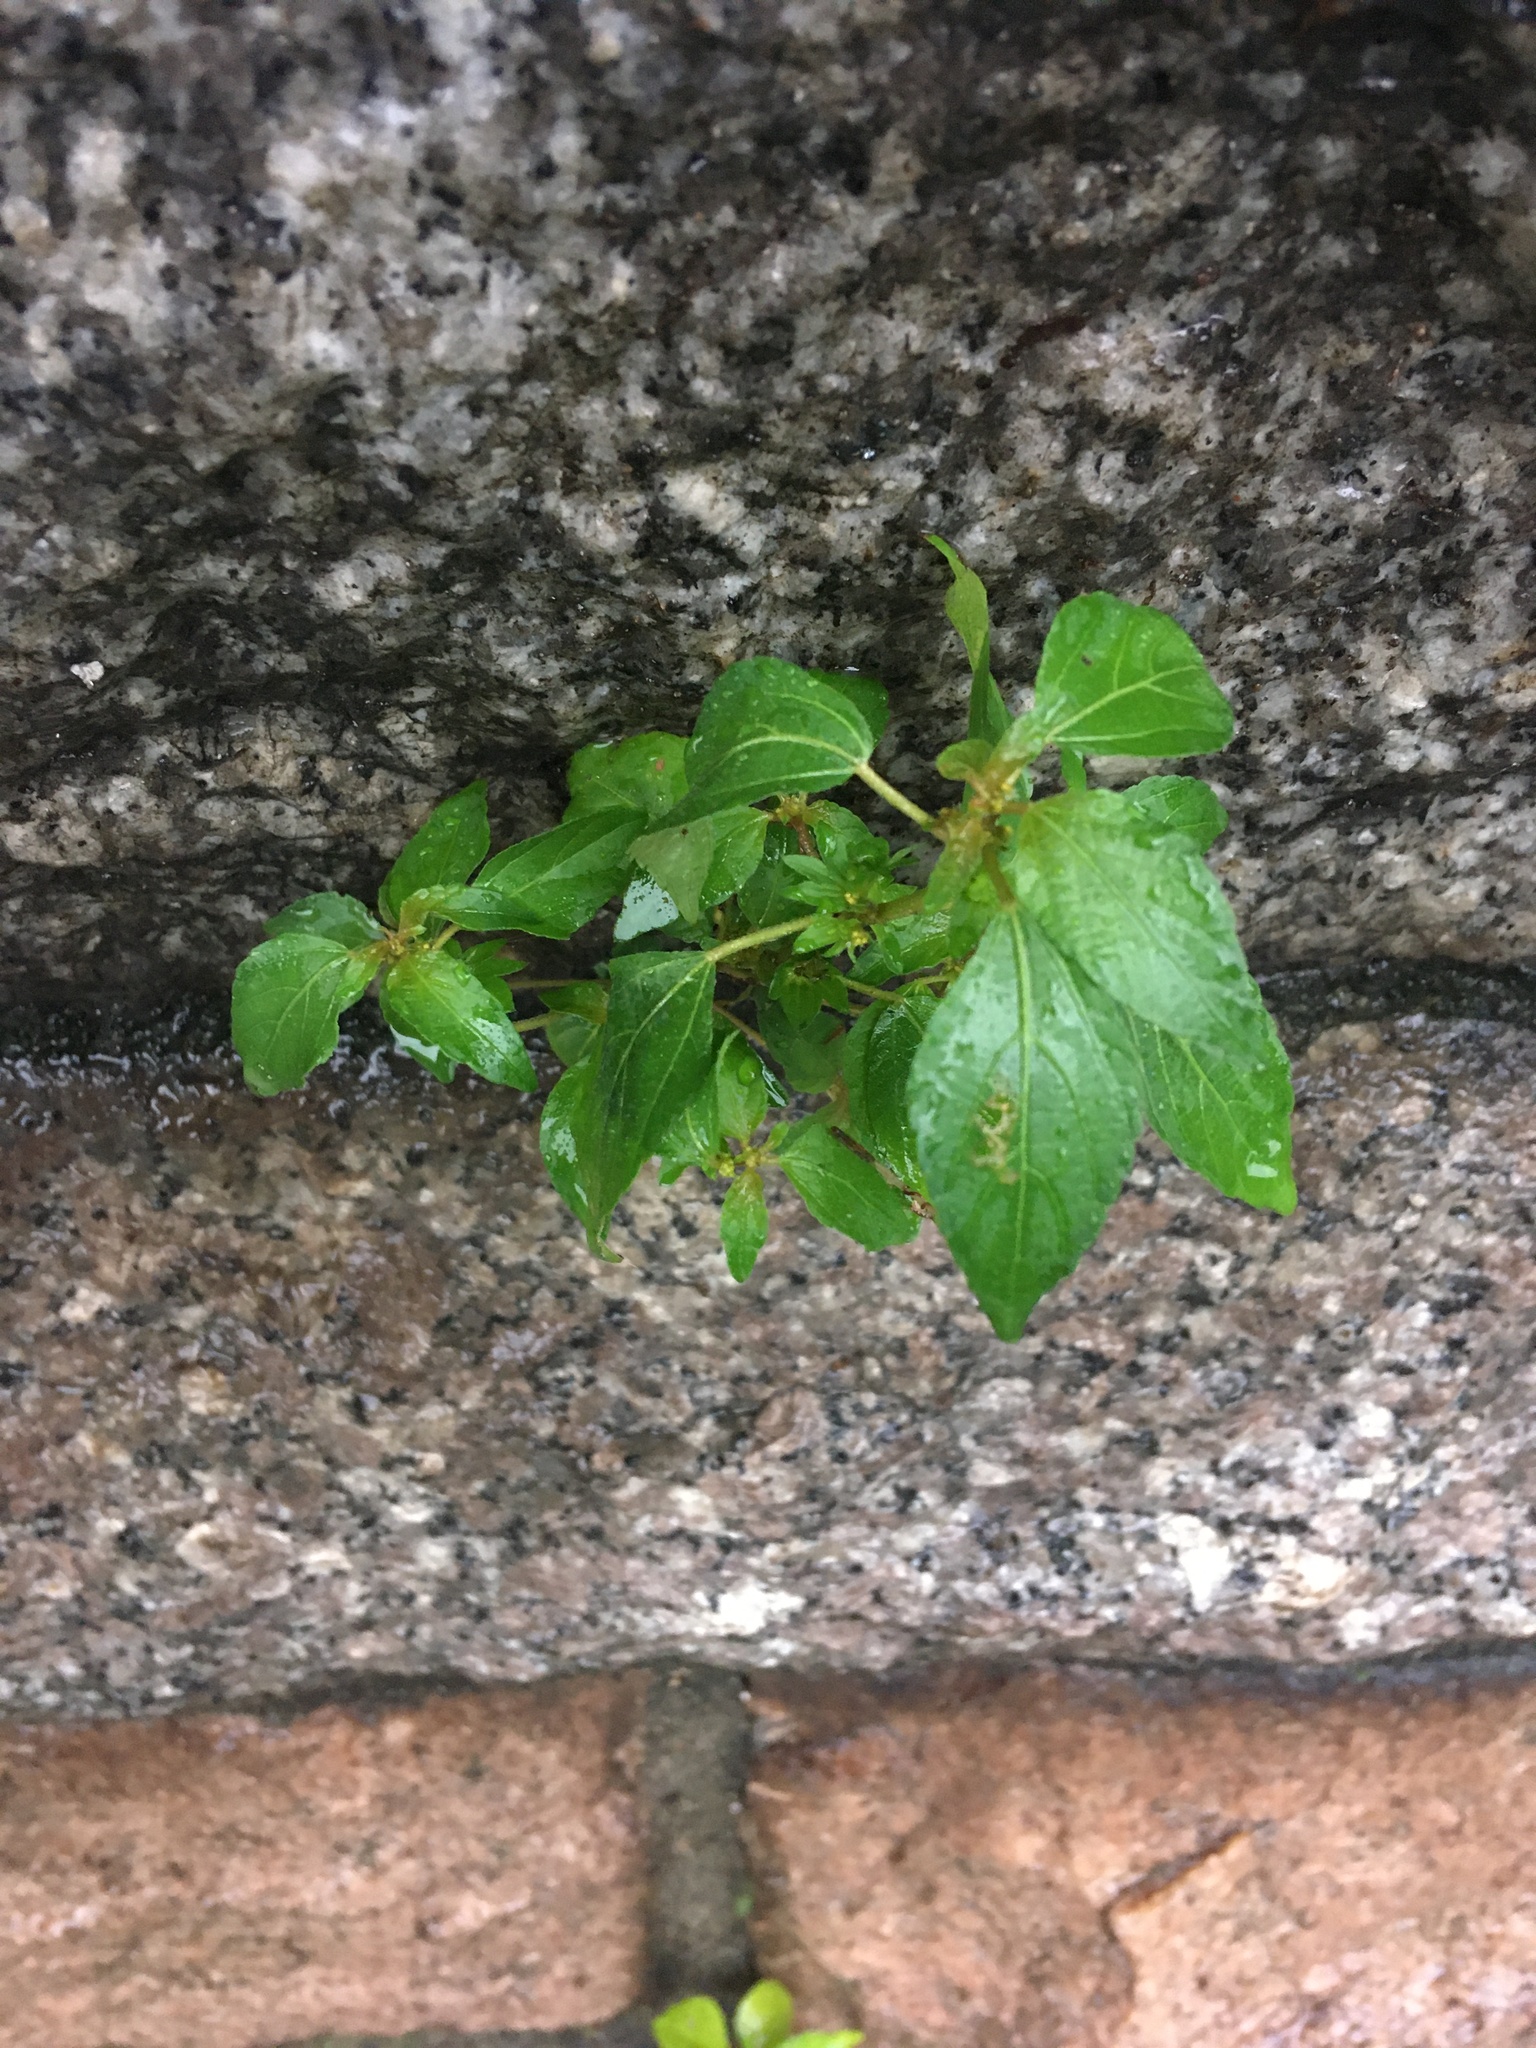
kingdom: Plantae
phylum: Tracheophyta
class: Magnoliopsida
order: Malpighiales
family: Euphorbiaceae
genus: Acalypha
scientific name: Acalypha rhomboidea
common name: Rhombic copperleaf
